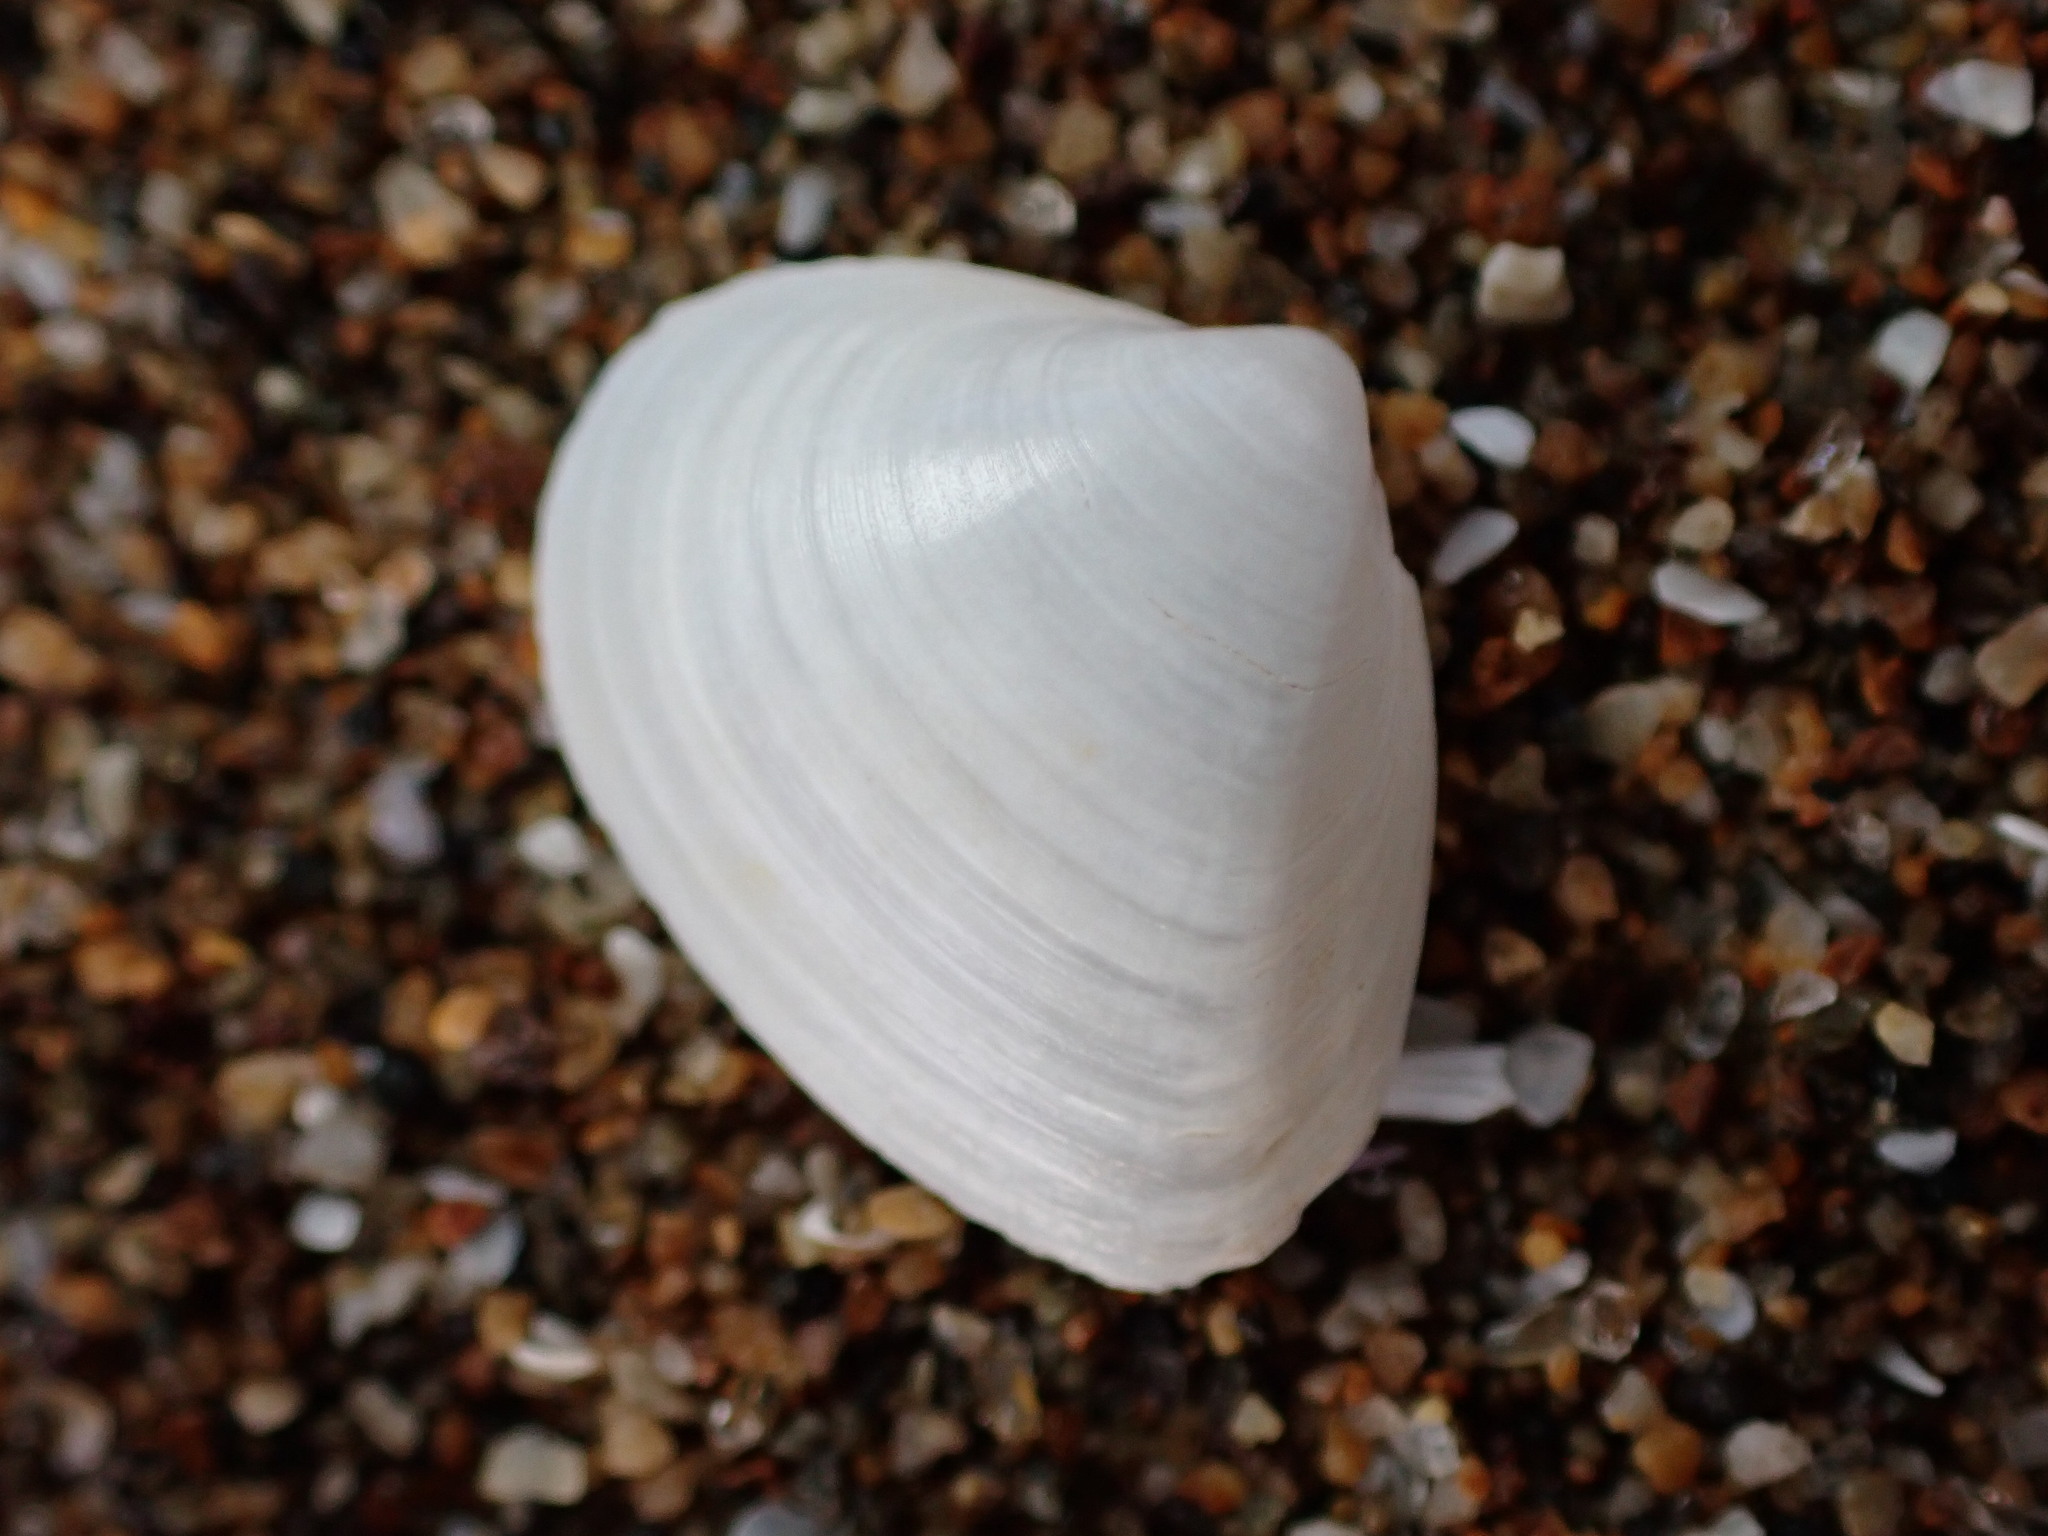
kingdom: Animalia
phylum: Mollusca
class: Bivalvia
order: Venerida
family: Mactridae
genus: Maorimactra
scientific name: Maorimactra ordinaria
